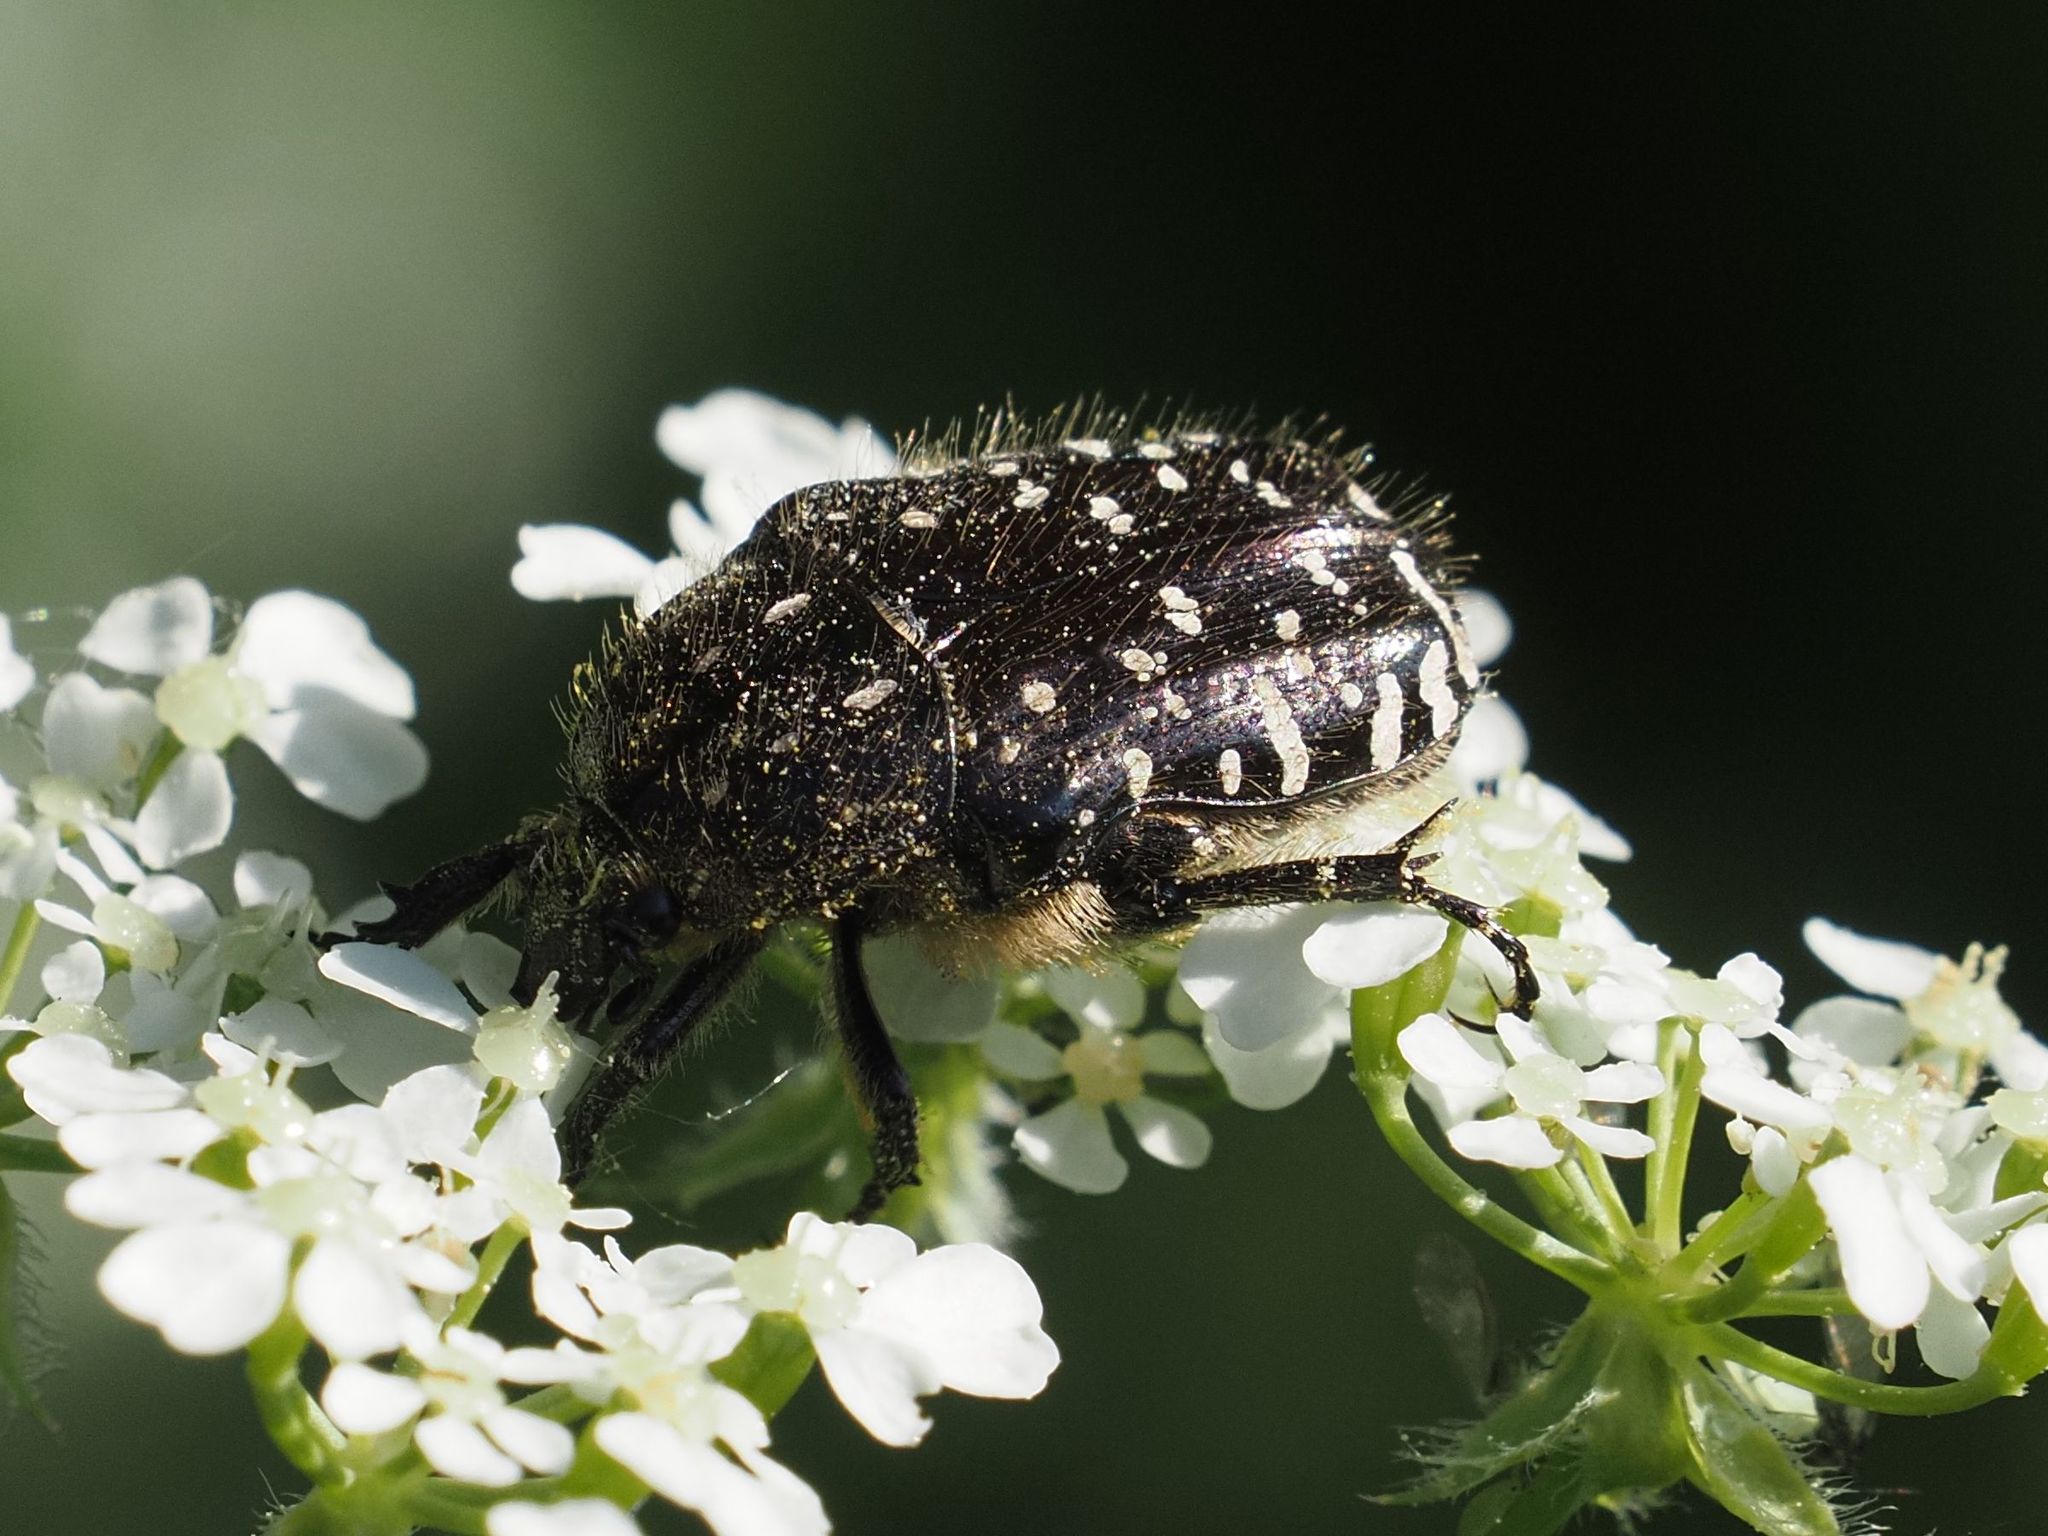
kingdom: Animalia
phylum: Arthropoda
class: Insecta
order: Coleoptera
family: Scarabaeidae
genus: Oxythyrea
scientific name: Oxythyrea funesta
